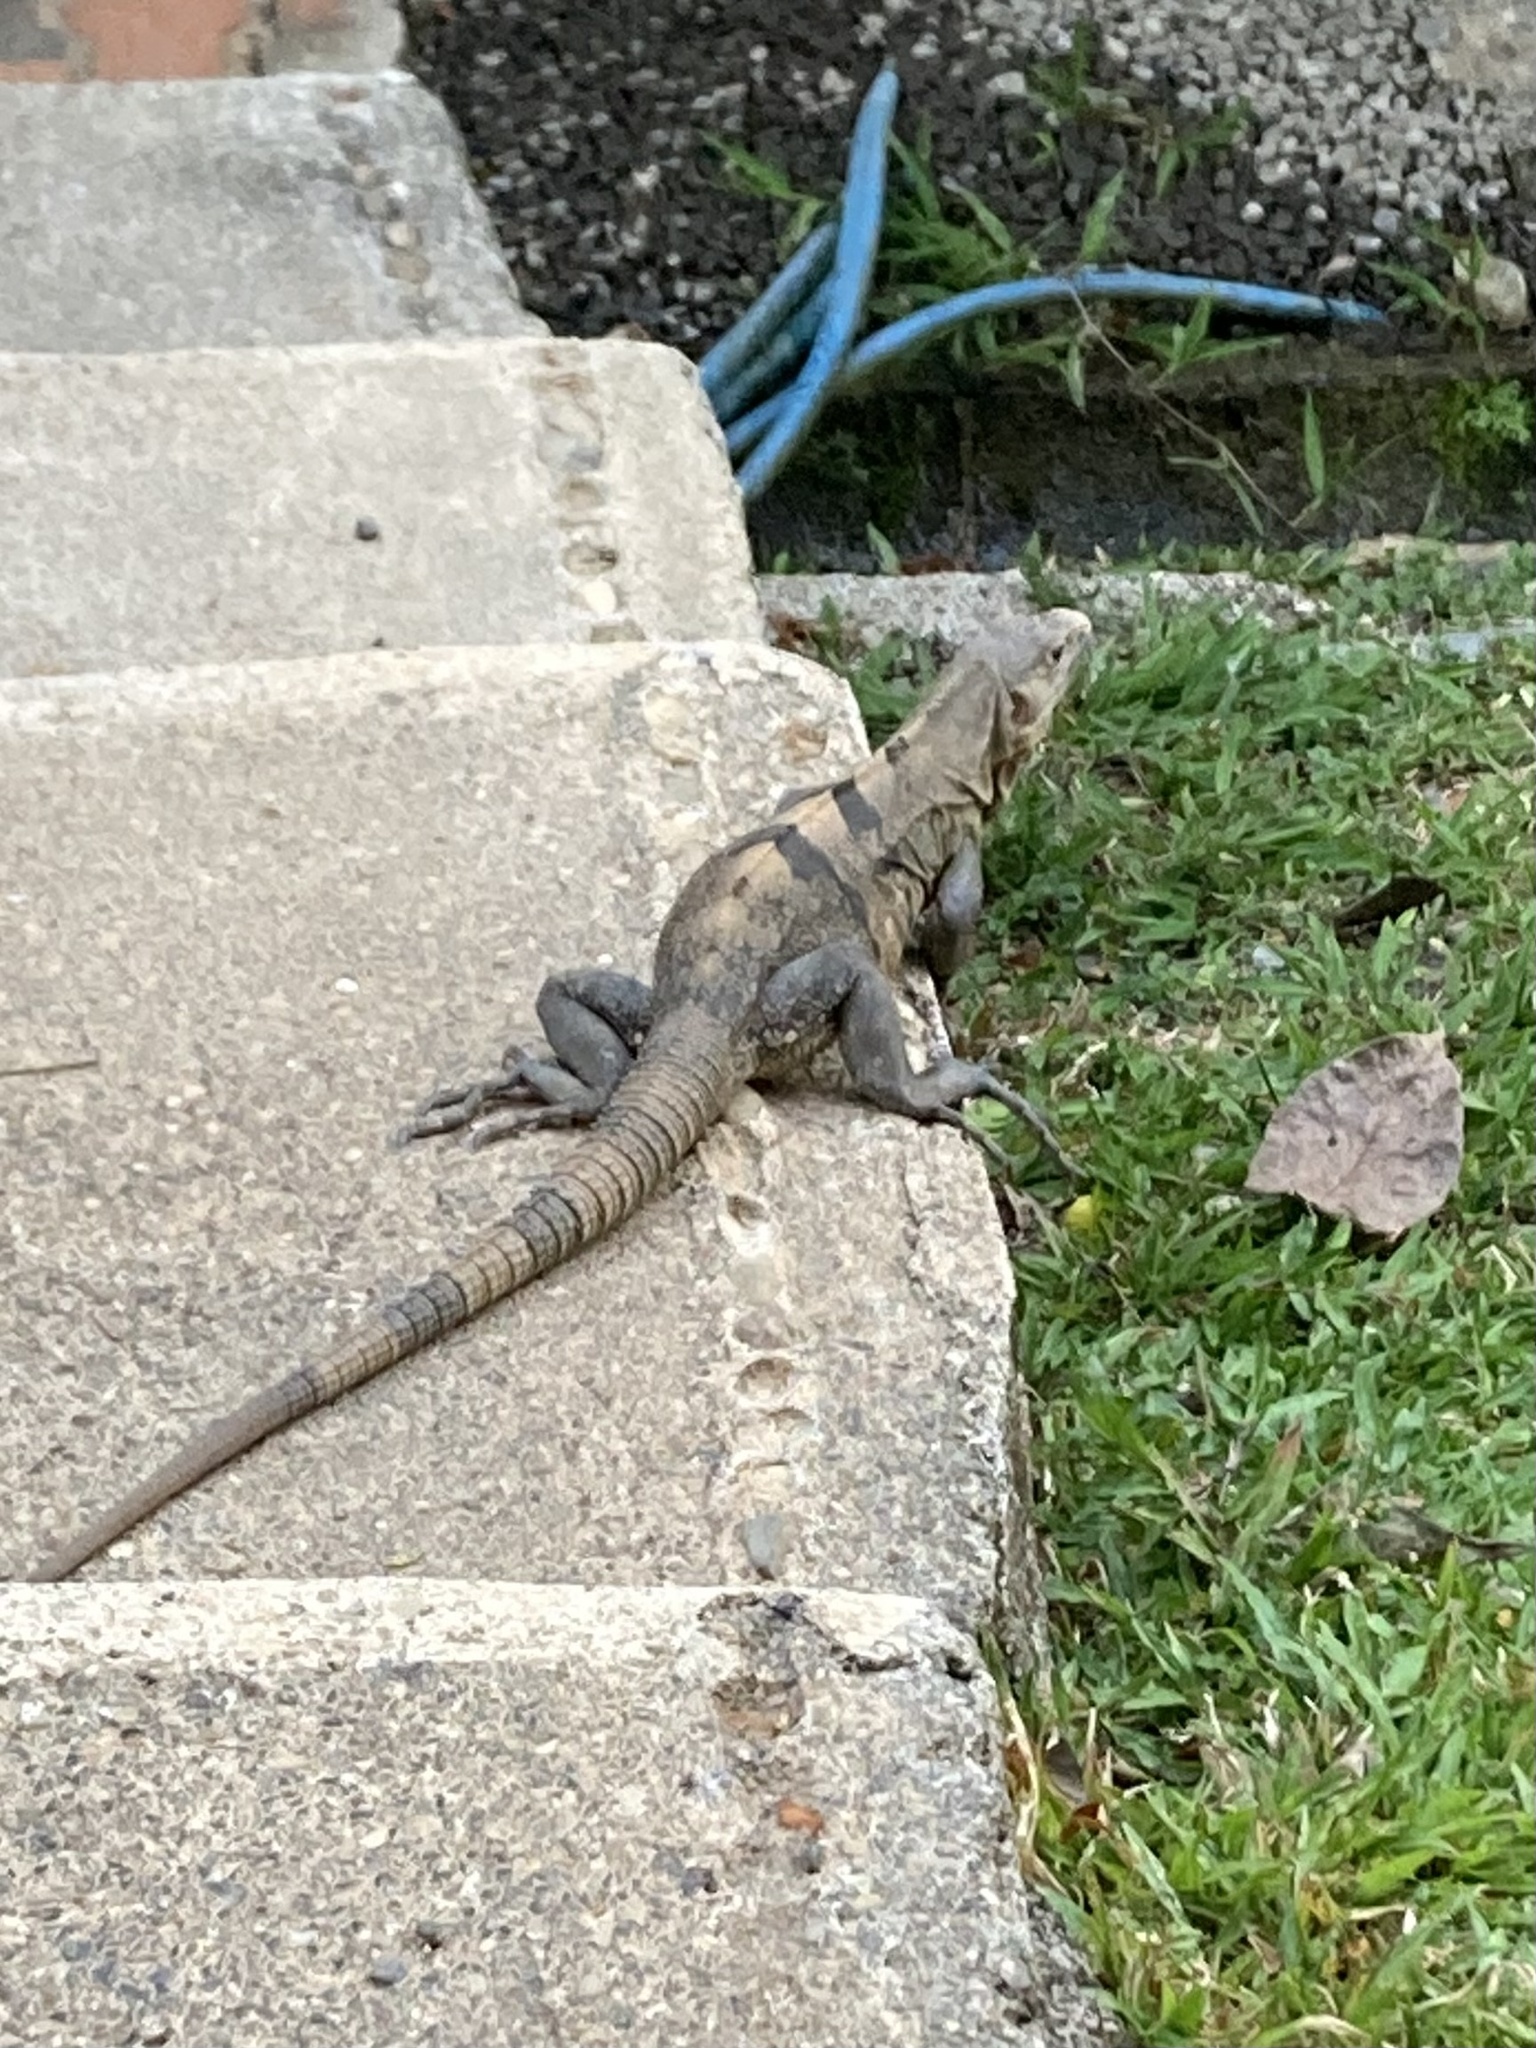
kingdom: Animalia
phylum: Chordata
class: Squamata
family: Iguanidae
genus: Ctenosaura
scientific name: Ctenosaura similis
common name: Black spiny-tailed iguana
